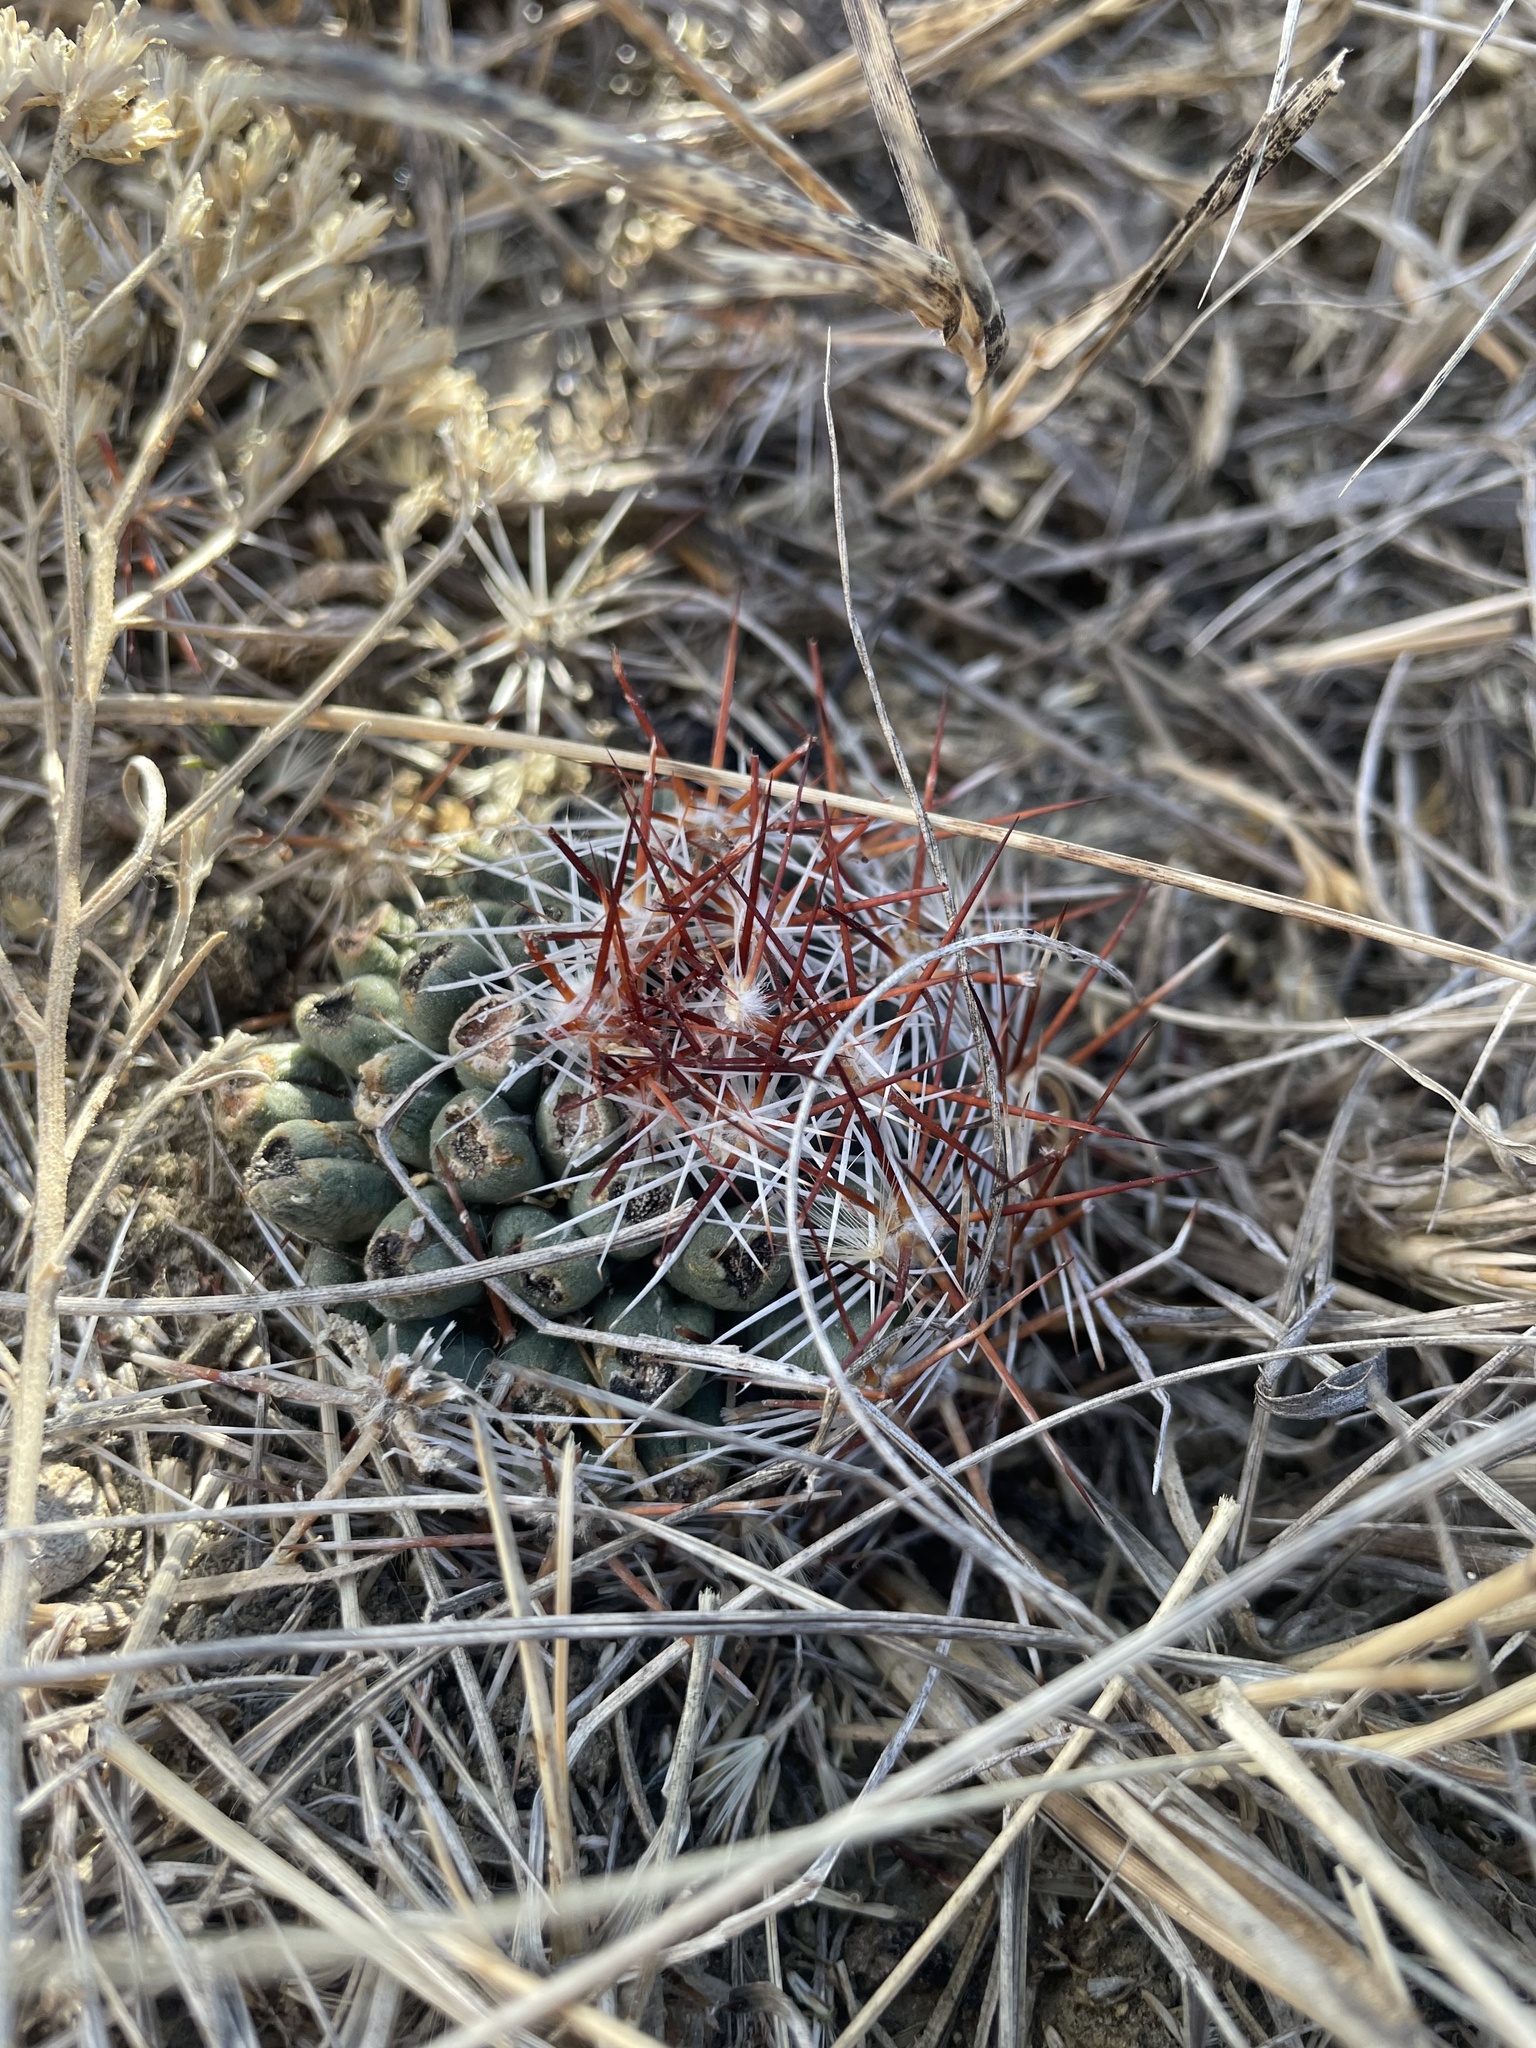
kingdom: Plantae
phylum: Tracheophyta
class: Magnoliopsida
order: Caryophyllales
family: Cactaceae
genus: Pelecyphora
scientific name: Pelecyphora vivipara
